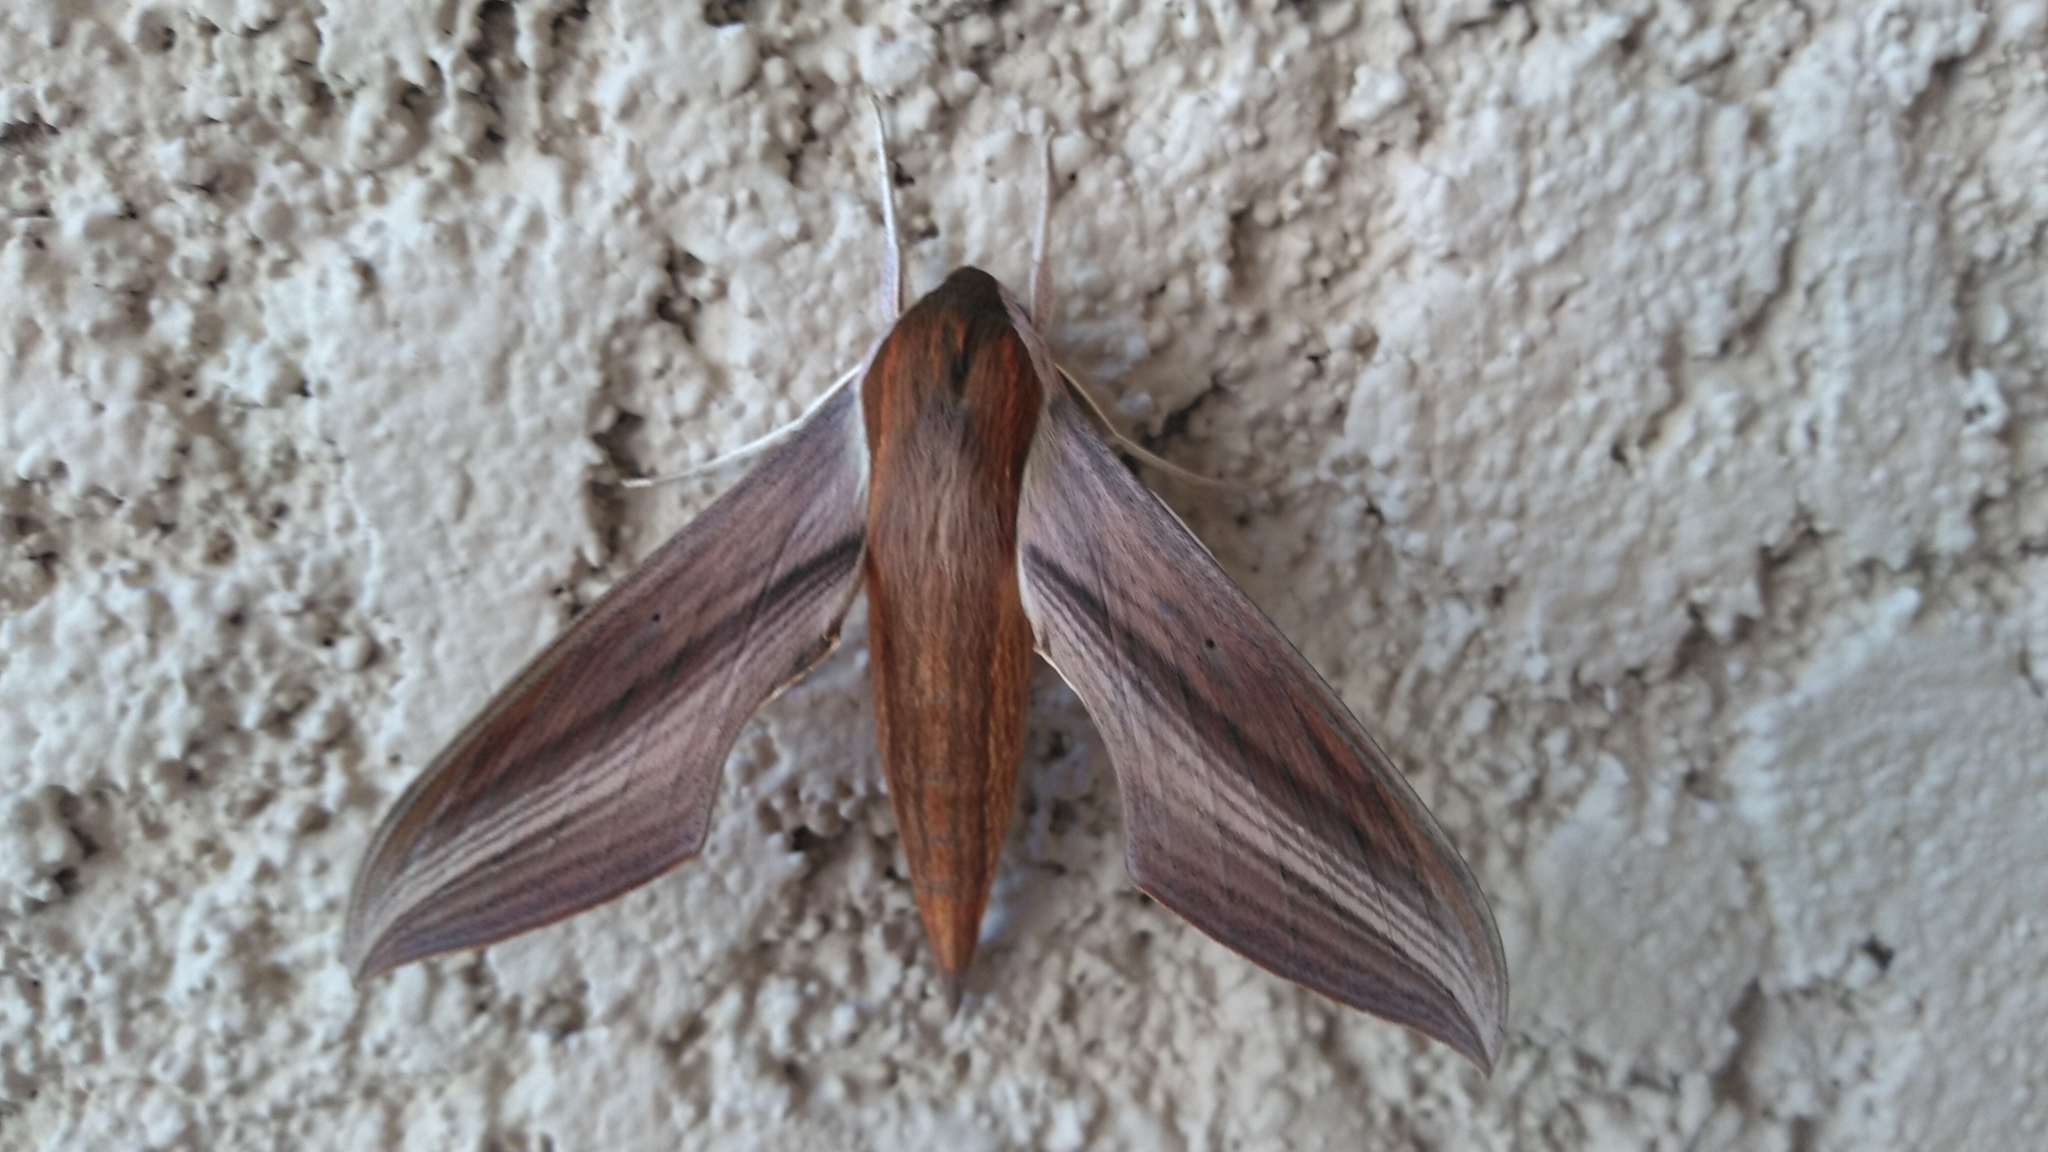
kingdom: Animalia
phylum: Arthropoda
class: Insecta
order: Lepidoptera
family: Sphingidae
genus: Xylophanes
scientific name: Xylophanes tersa
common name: Tersa sphinx
